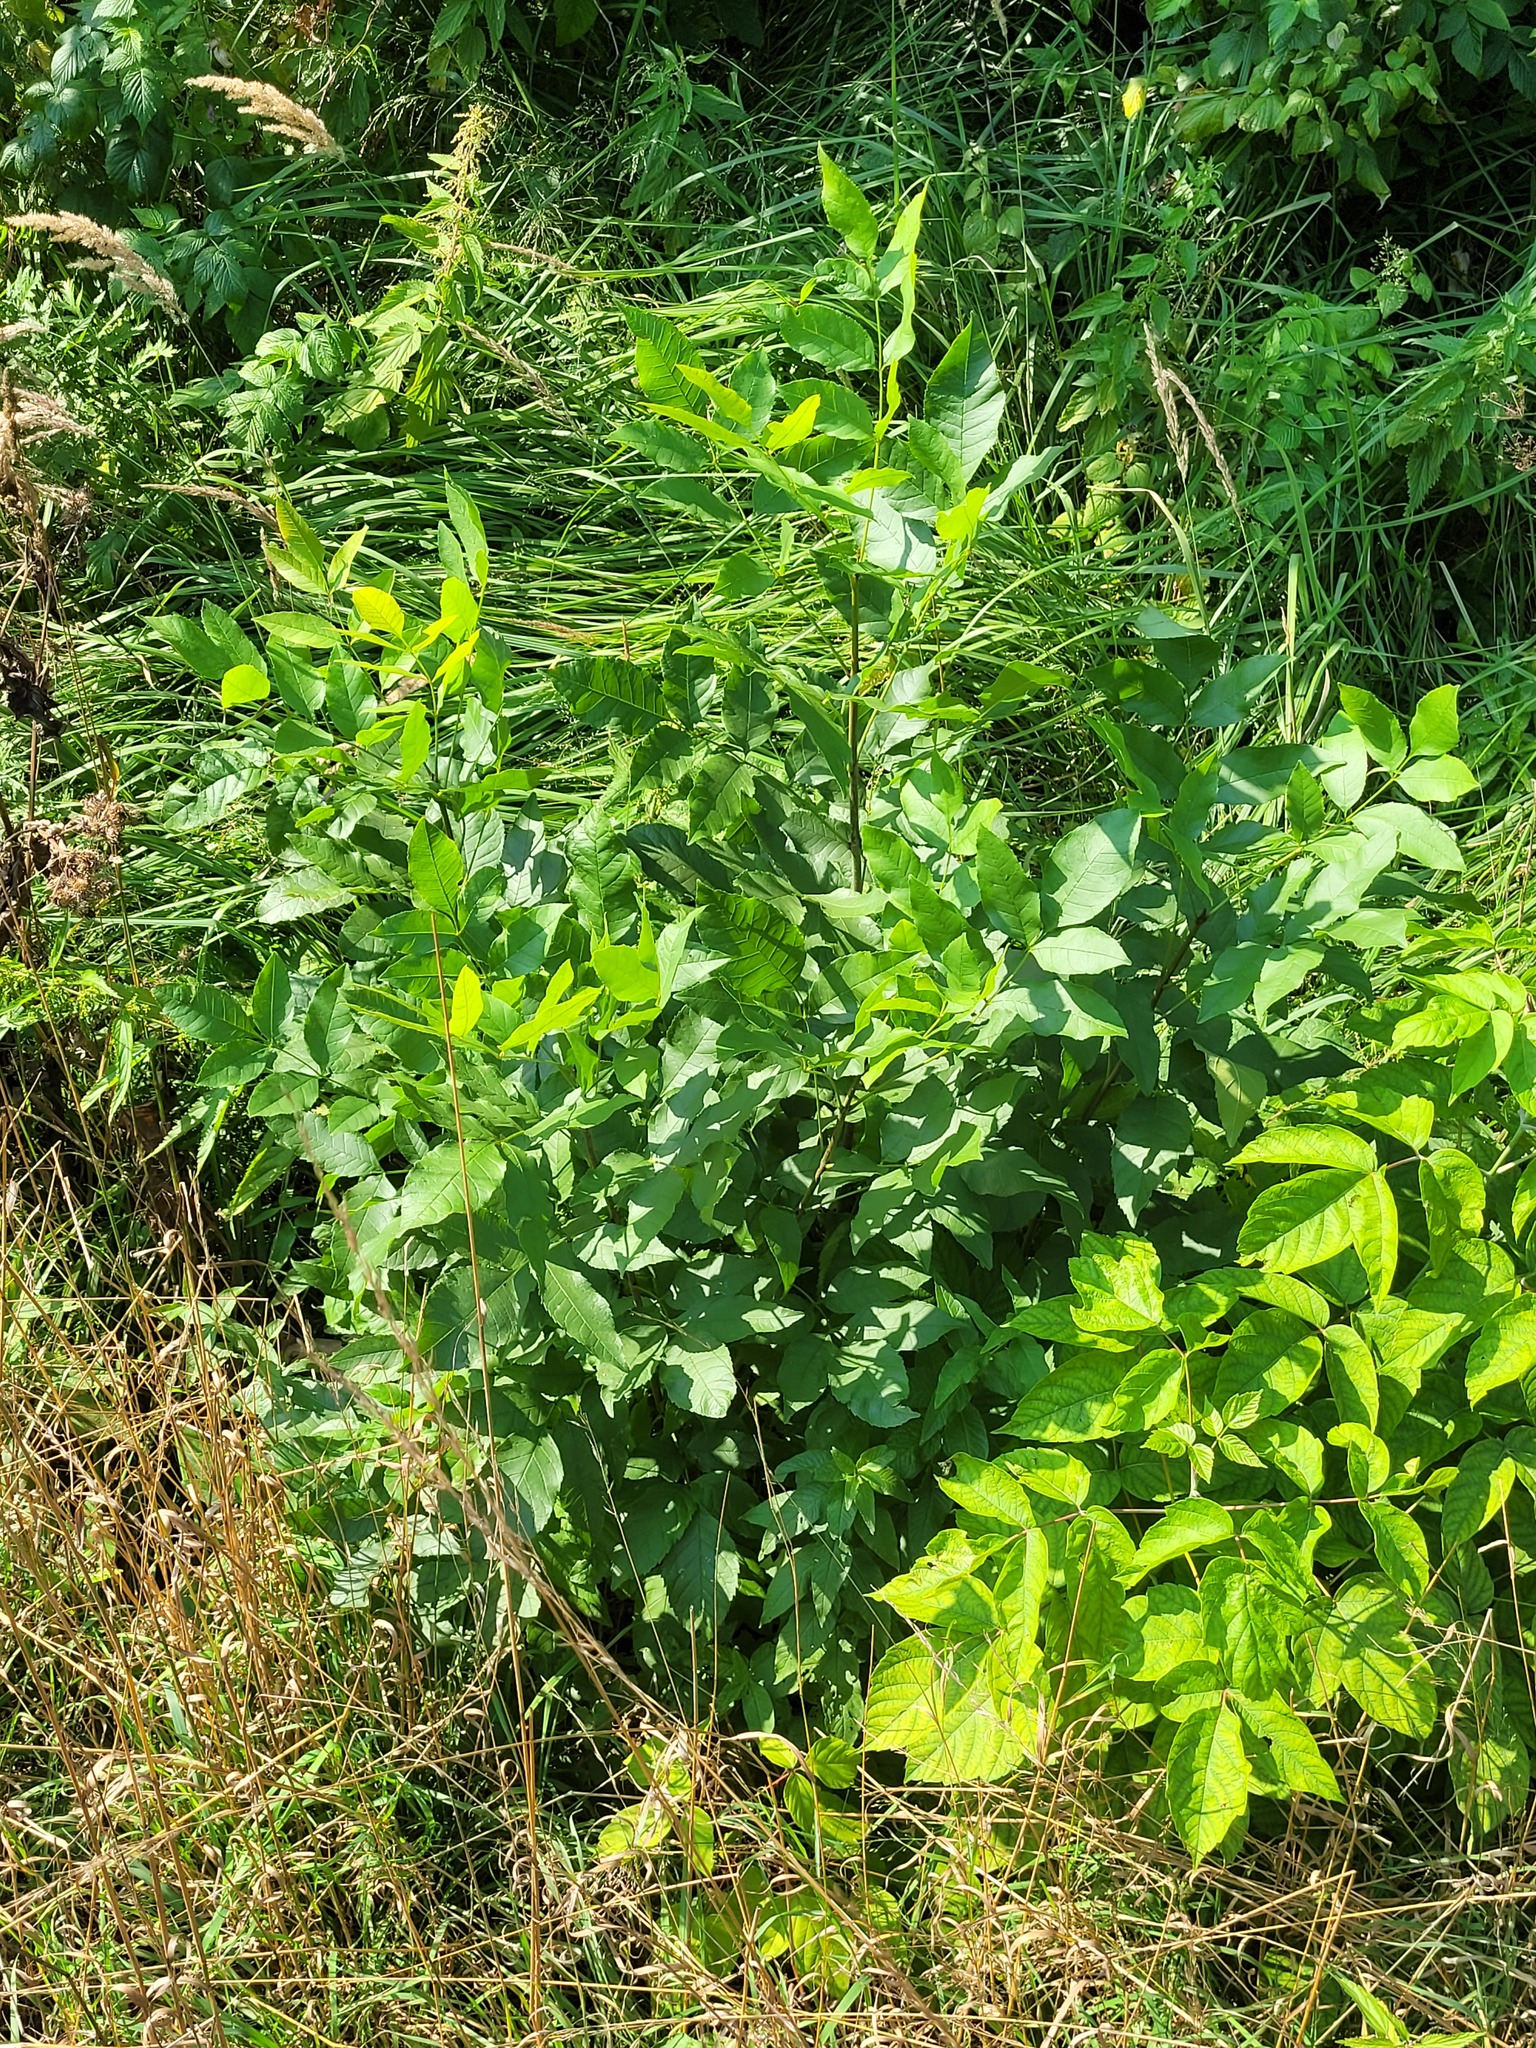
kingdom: Plantae
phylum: Tracheophyta
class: Magnoliopsida
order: Lamiales
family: Oleaceae
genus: Fraxinus
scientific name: Fraxinus pennsylvanica
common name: Green ash
